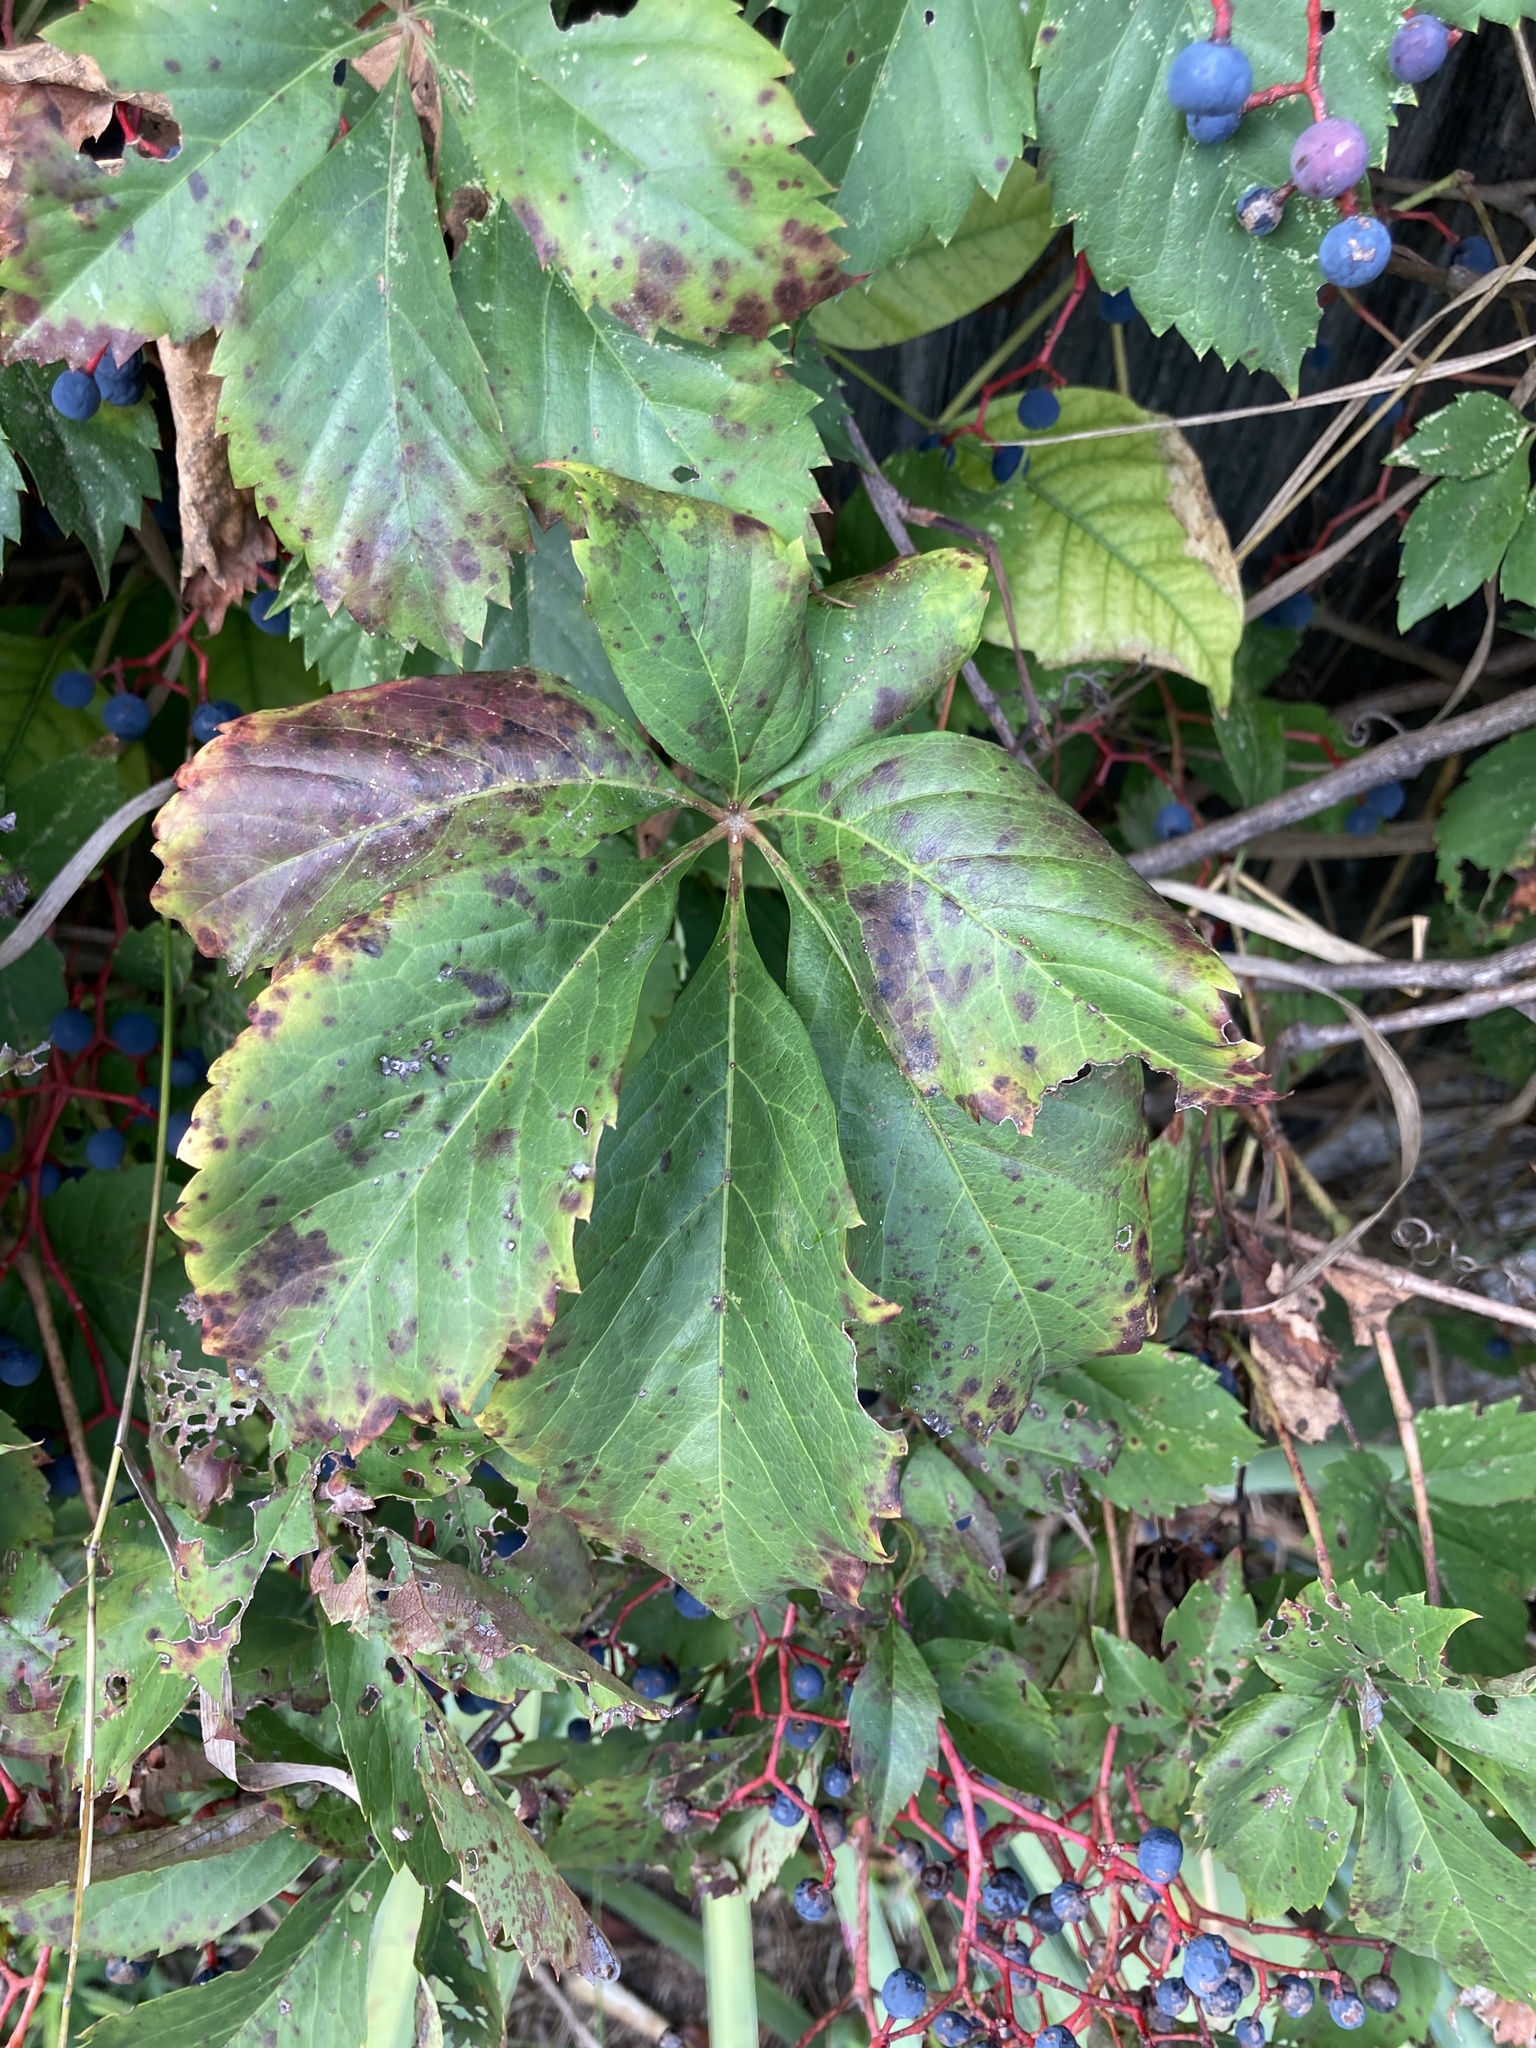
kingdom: Plantae
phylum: Tracheophyta
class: Magnoliopsida
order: Vitales
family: Vitaceae
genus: Parthenocissus
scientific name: Parthenocissus quinquefolia
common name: Virginia-creeper
